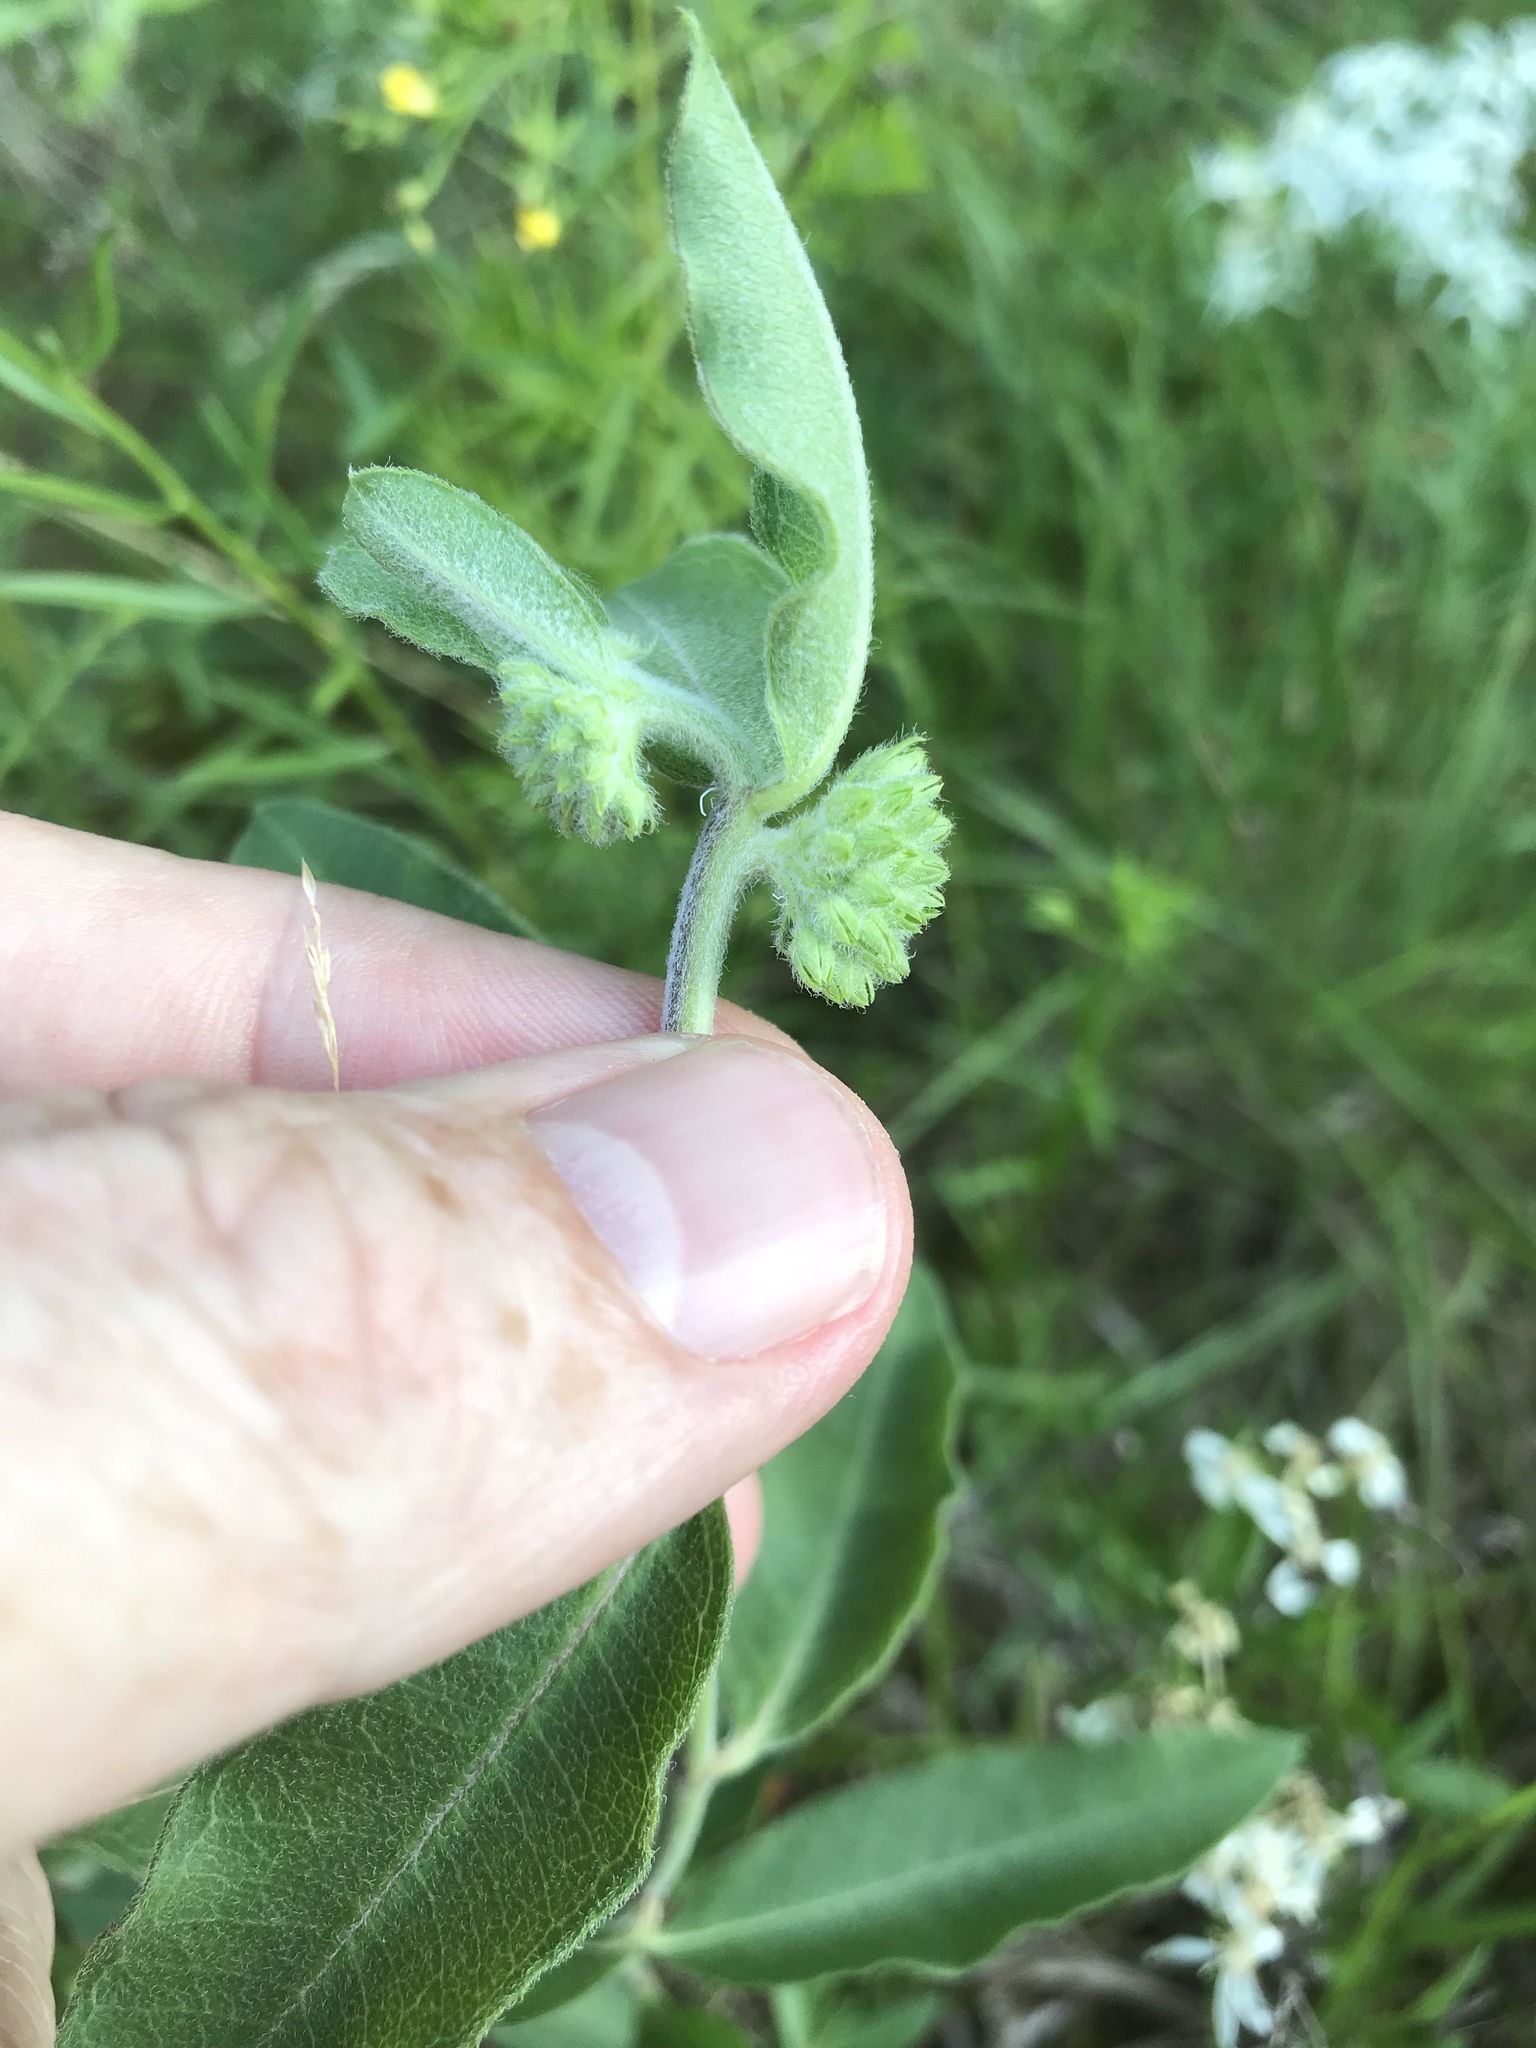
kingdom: Plantae
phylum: Tracheophyta
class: Magnoliopsida
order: Gentianales
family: Apocynaceae
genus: Asclepias
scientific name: Asclepias viridiflora
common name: Green comet milkweed
